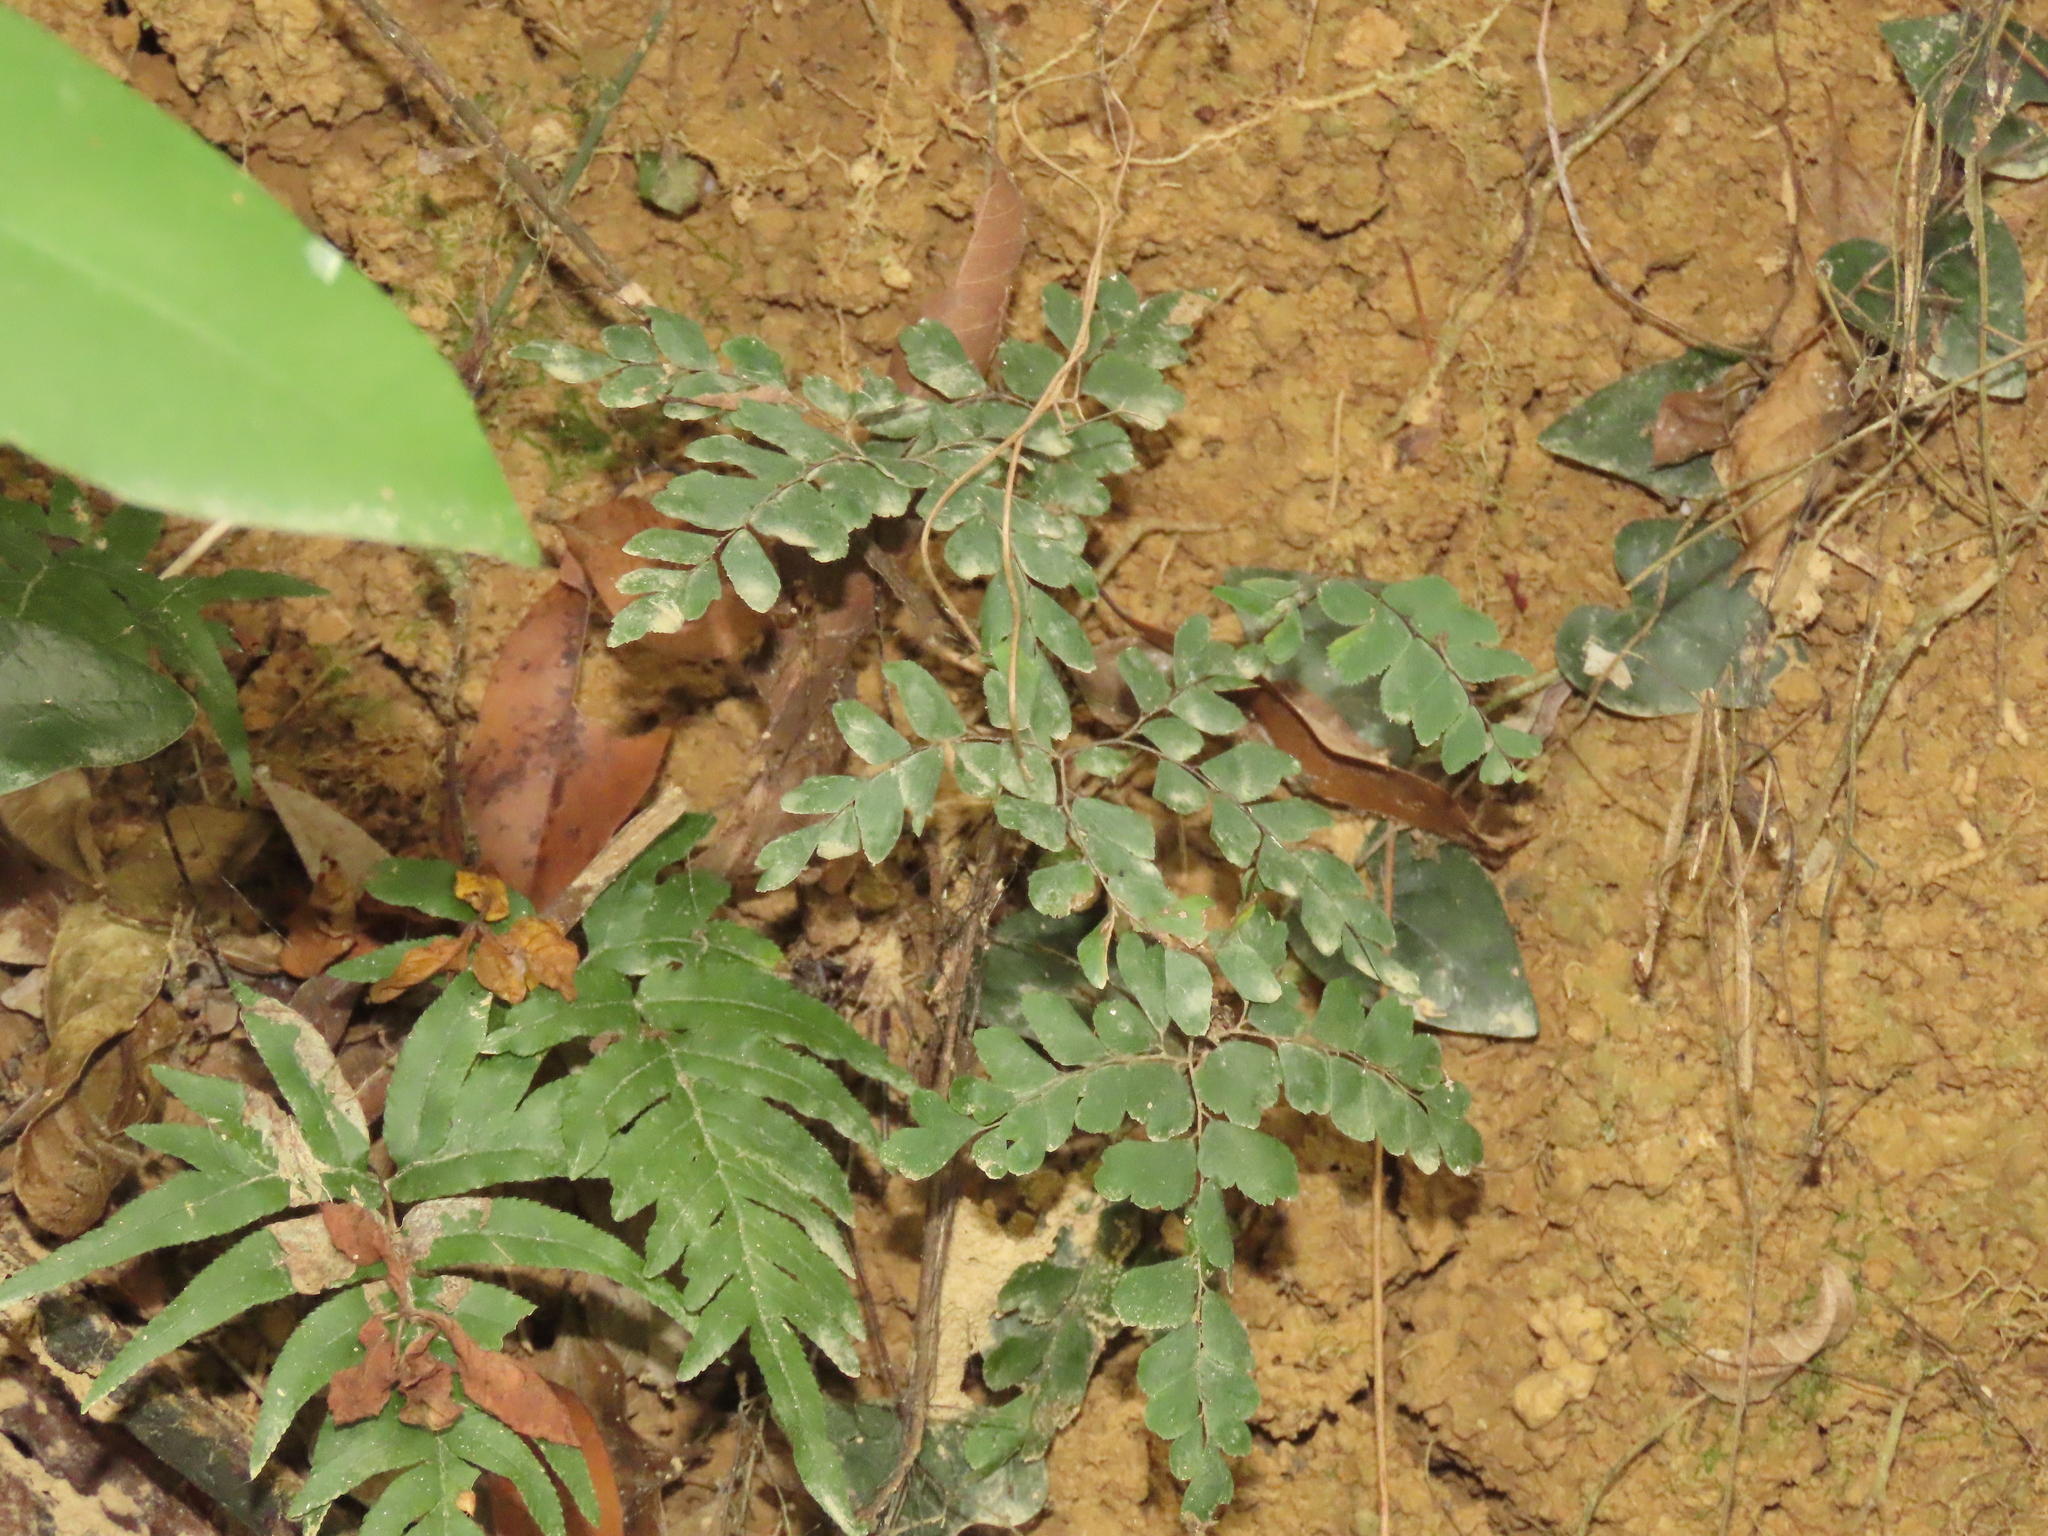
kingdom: Plantae
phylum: Tracheophyta
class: Polypodiopsida
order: Polypodiales
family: Pteridaceae
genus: Adiantum
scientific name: Adiantum flabellulatum
